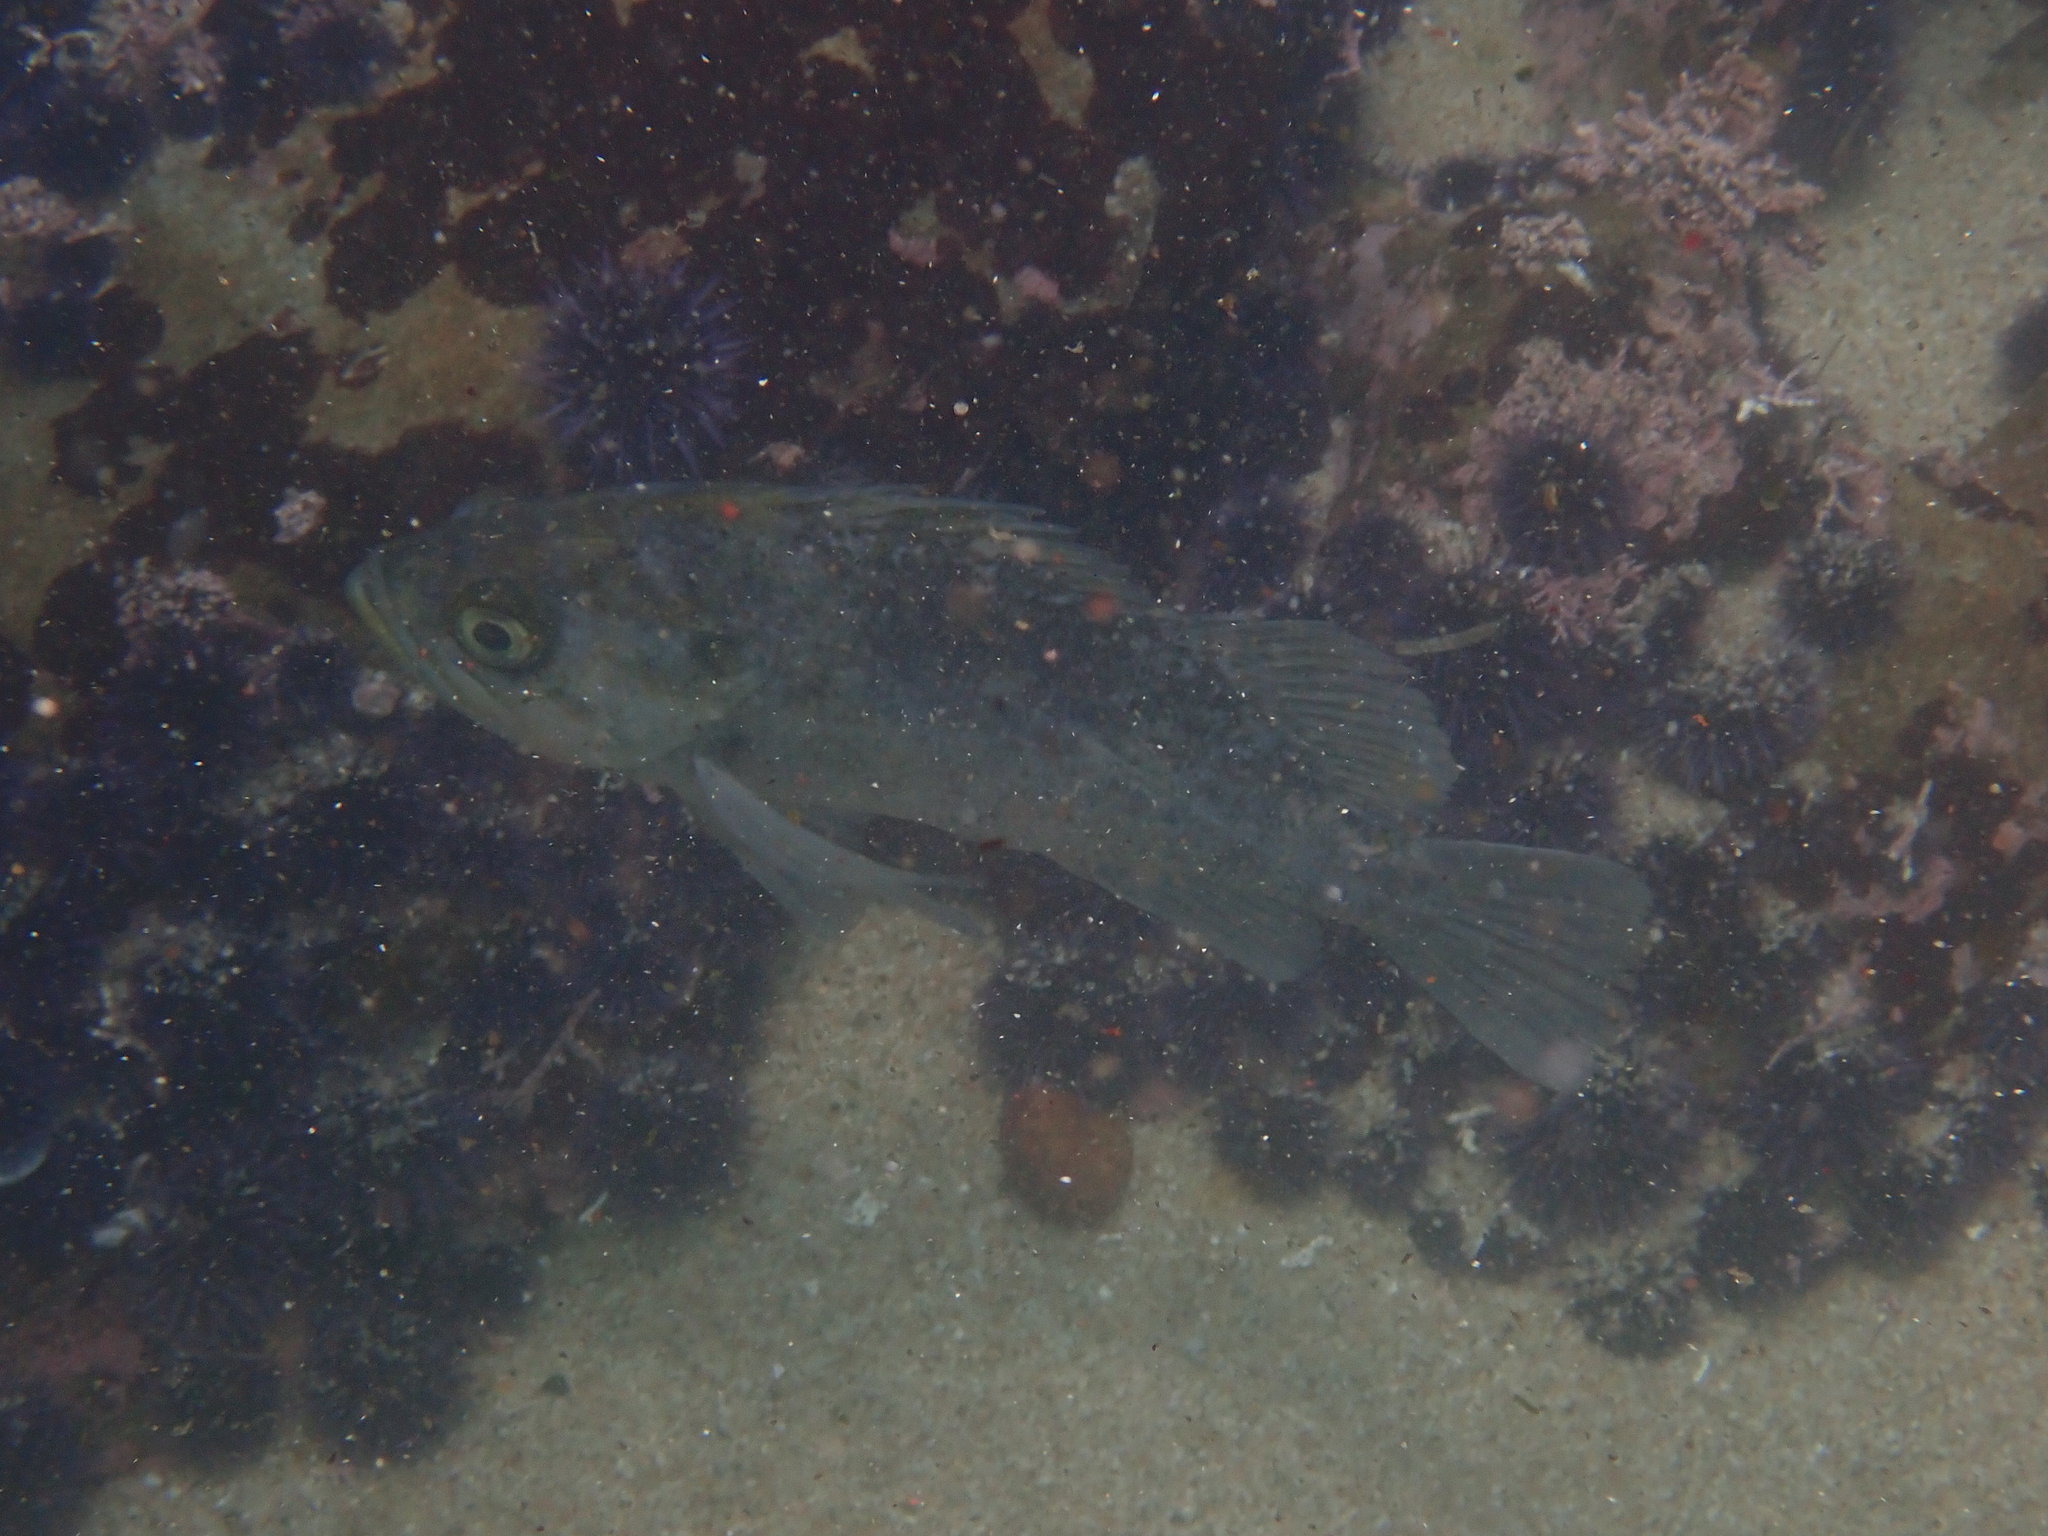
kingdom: Animalia
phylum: Chordata
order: Scorpaeniformes
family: Sebastidae
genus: Sebastes
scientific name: Sebastes atrovirens
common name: Kelp rockfish
